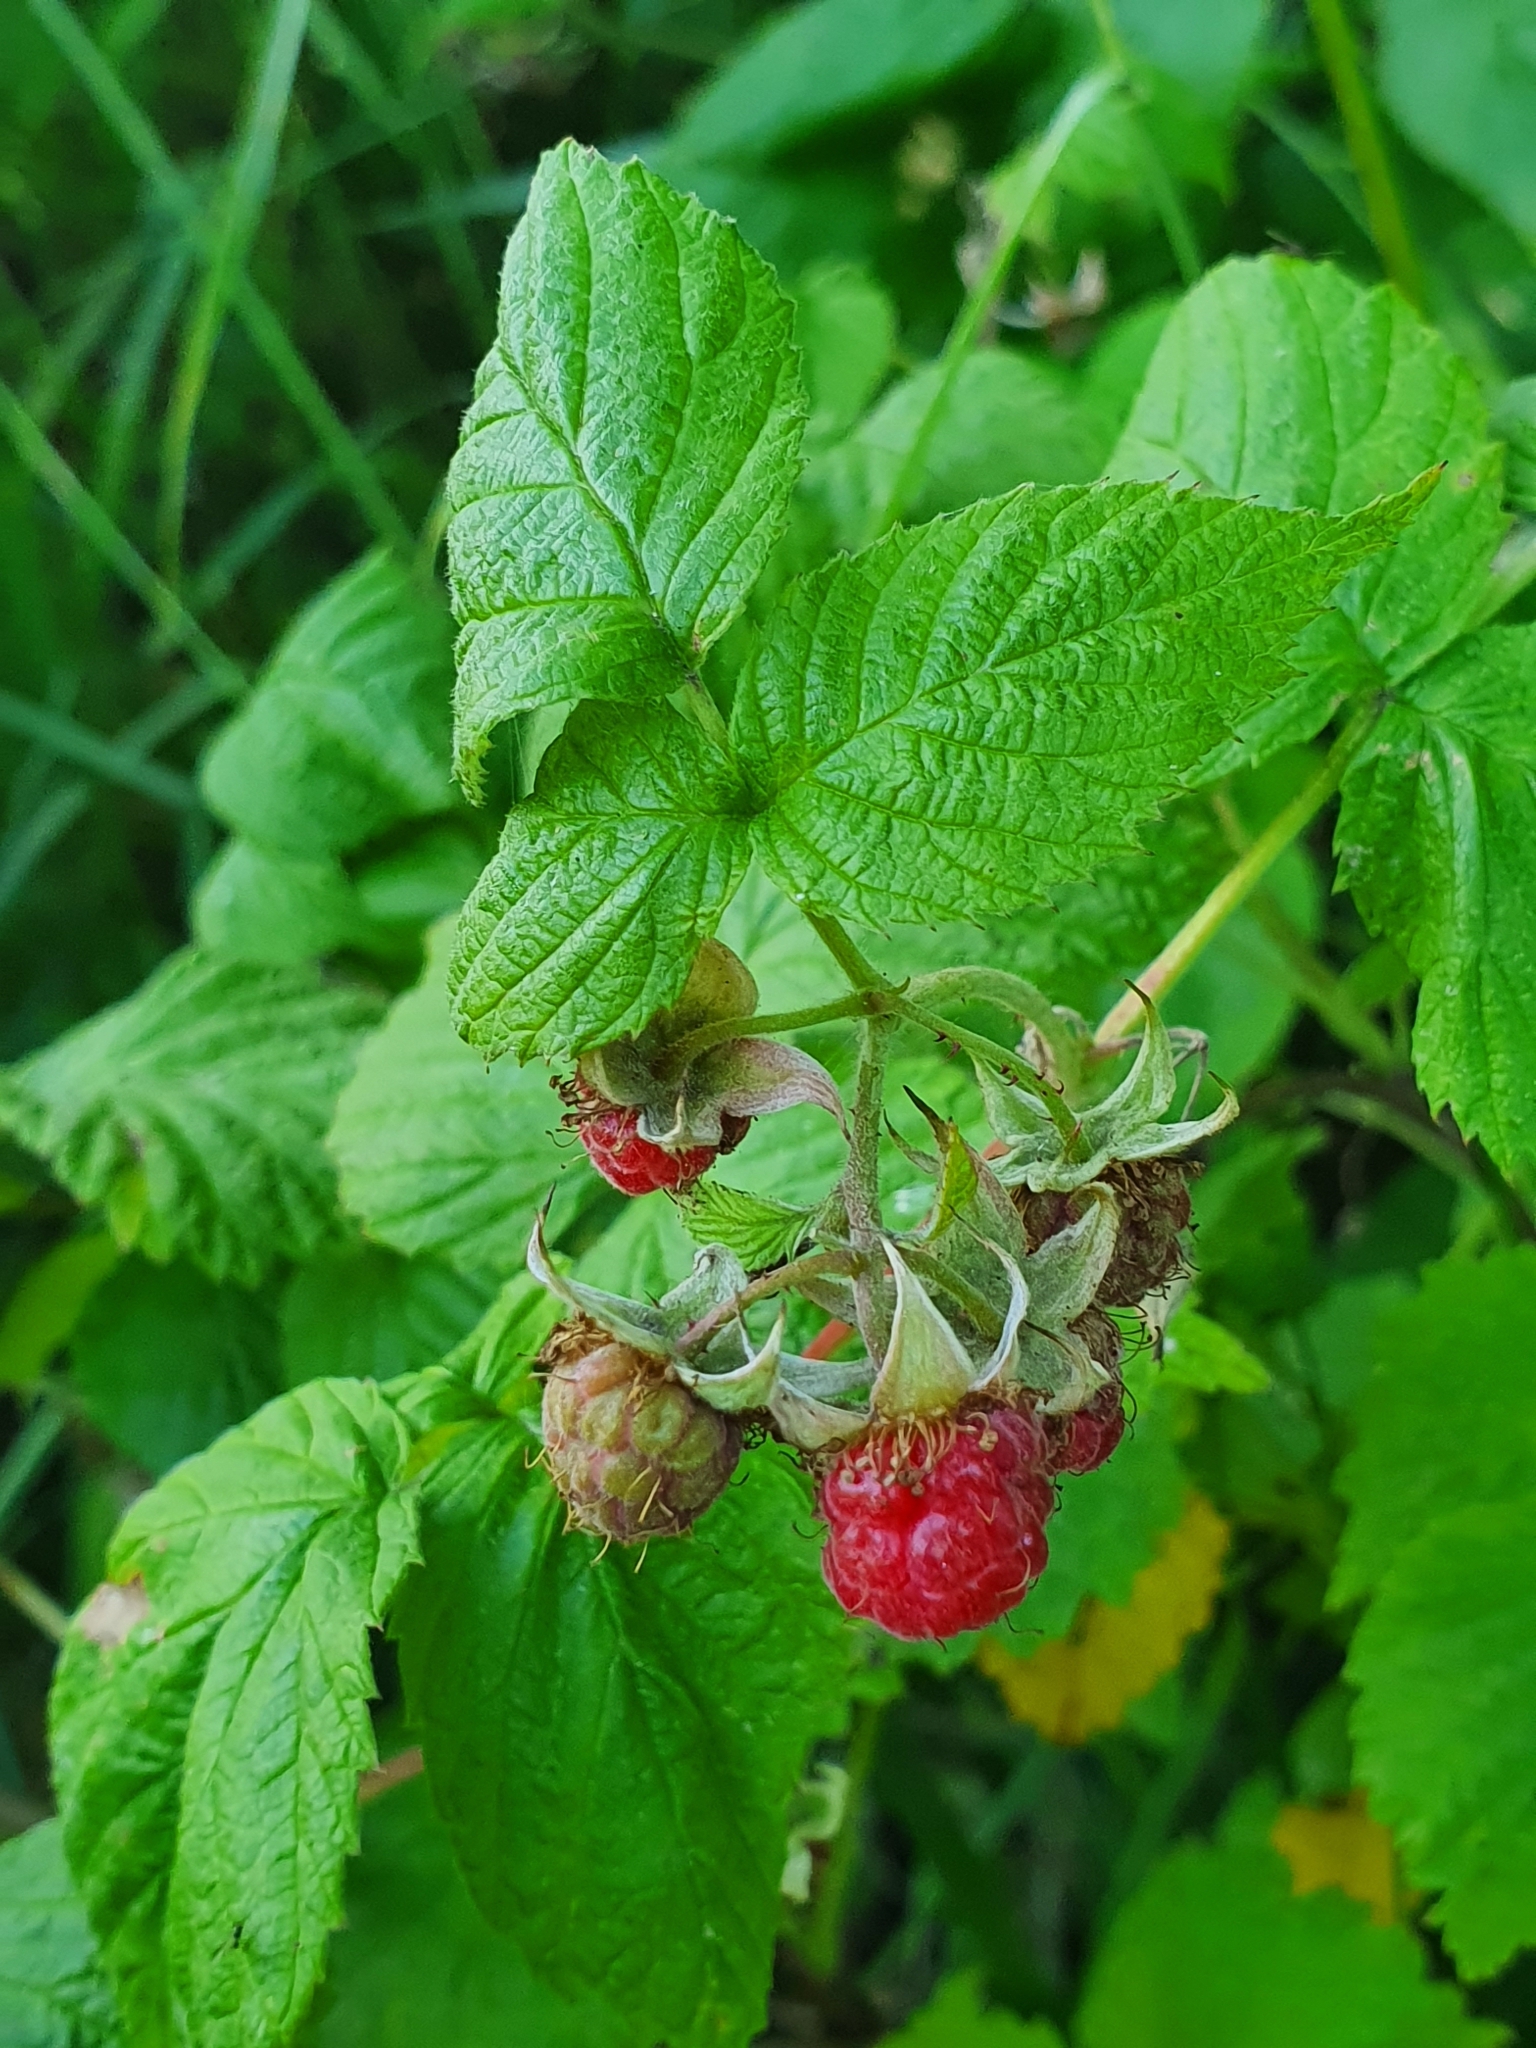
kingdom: Plantae
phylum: Tracheophyta
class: Magnoliopsida
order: Rosales
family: Rosaceae
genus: Rubus
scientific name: Rubus idaeus
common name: Raspberry
